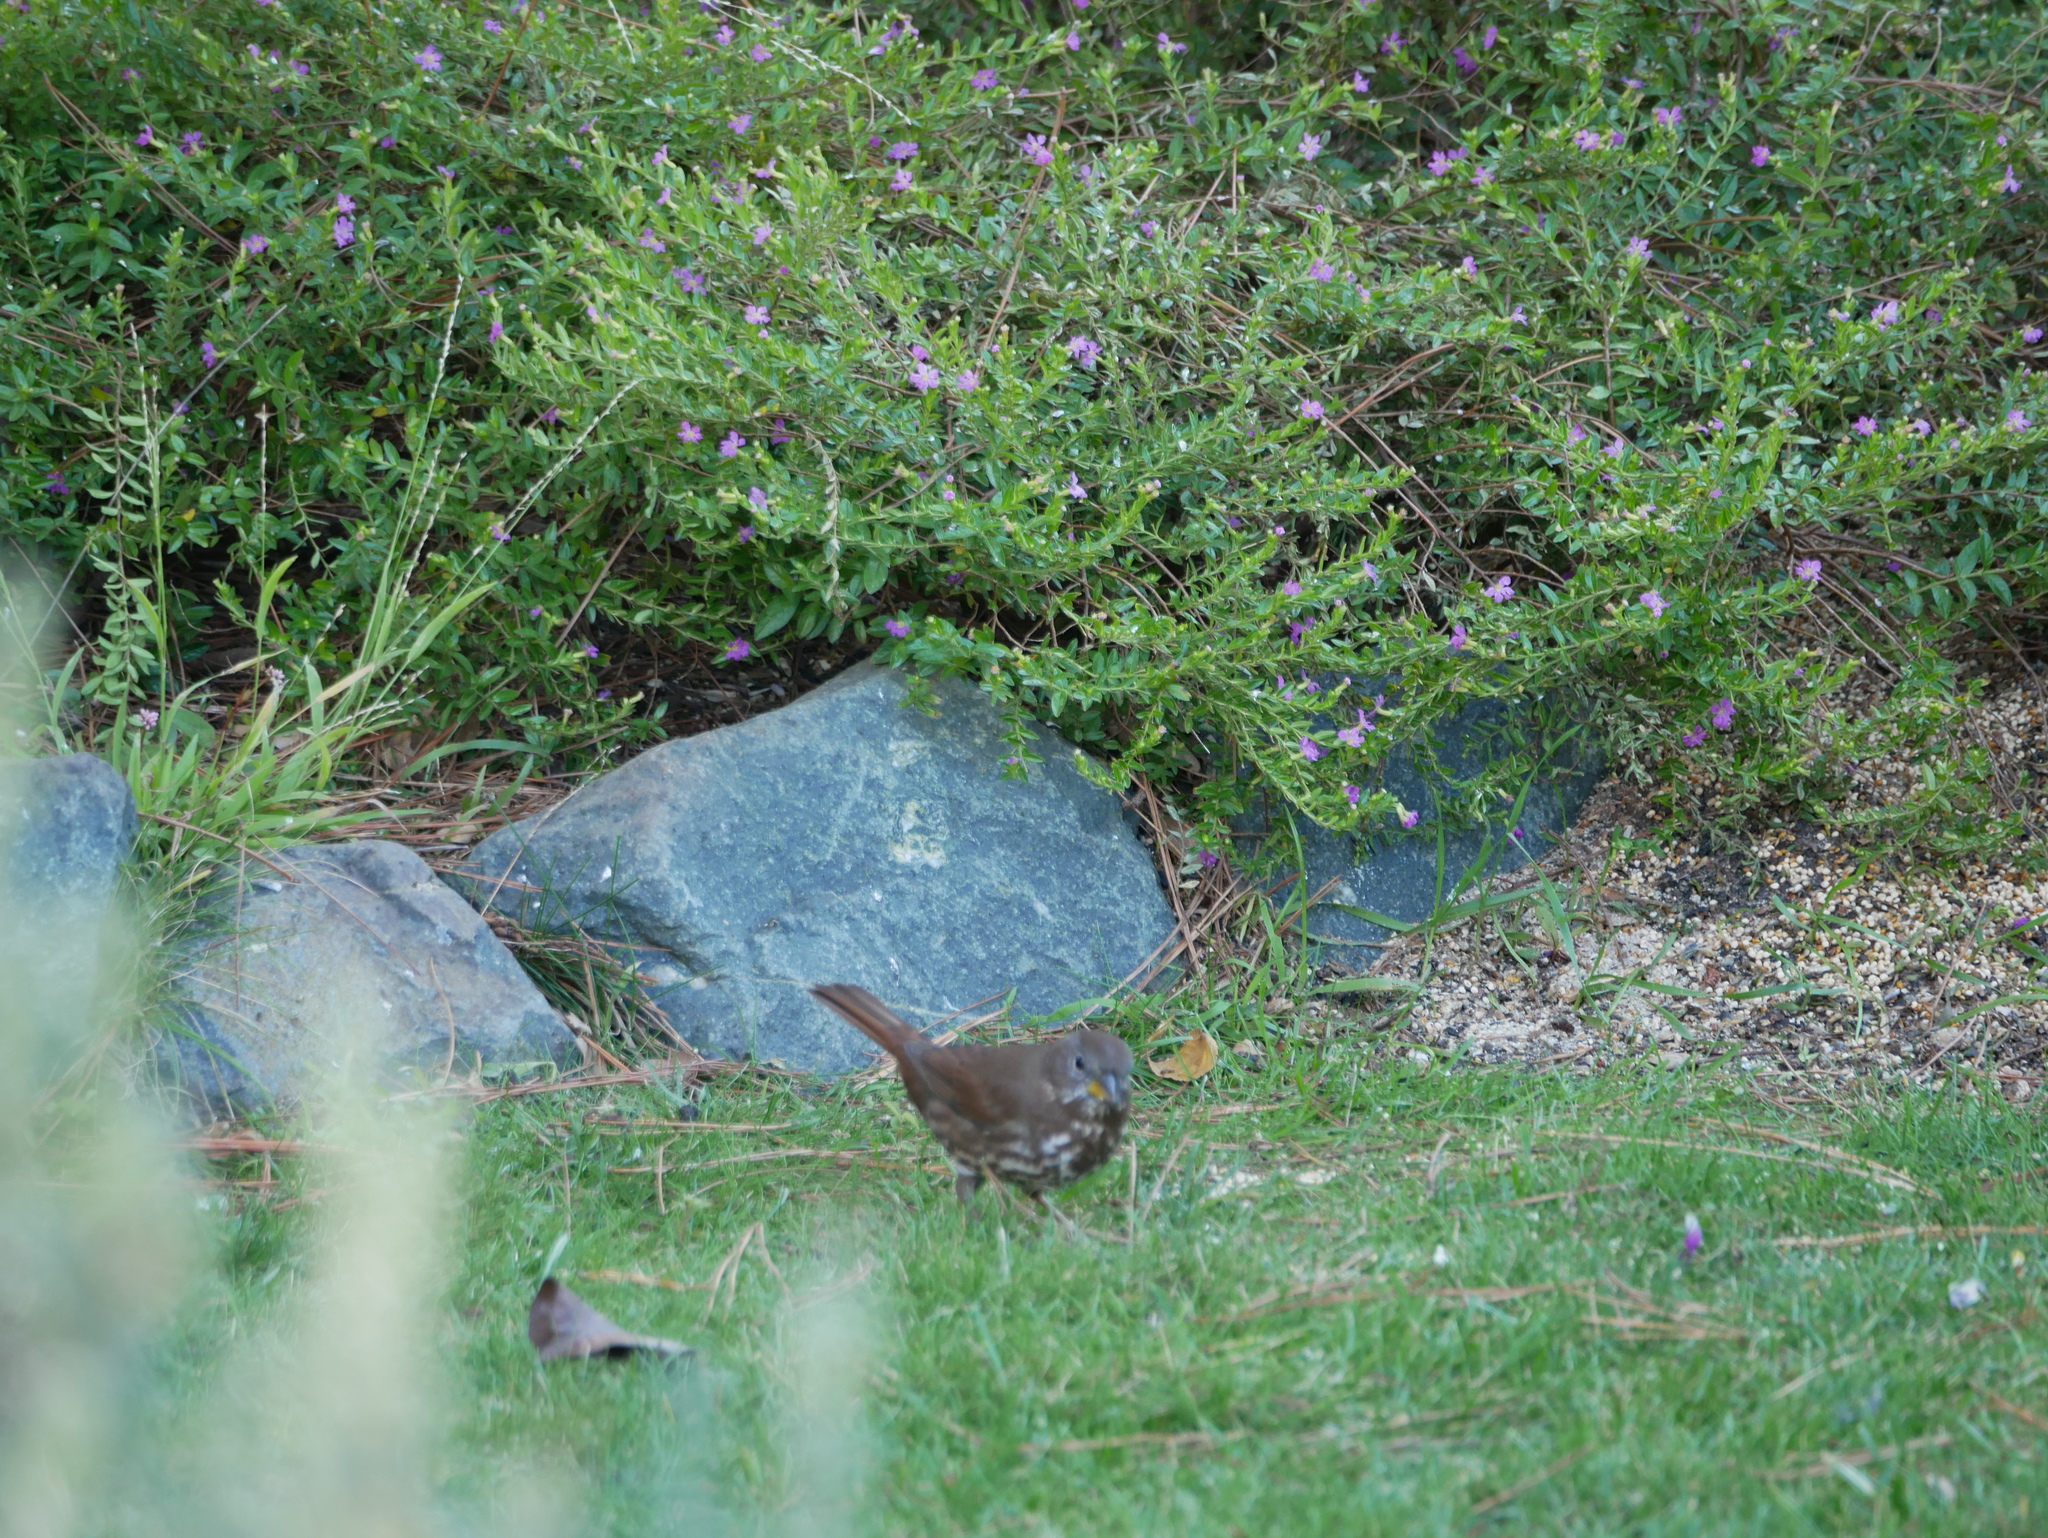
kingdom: Animalia
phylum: Chordata
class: Aves
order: Passeriformes
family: Passerellidae
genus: Passerella
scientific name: Passerella iliaca
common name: Fox sparrow
